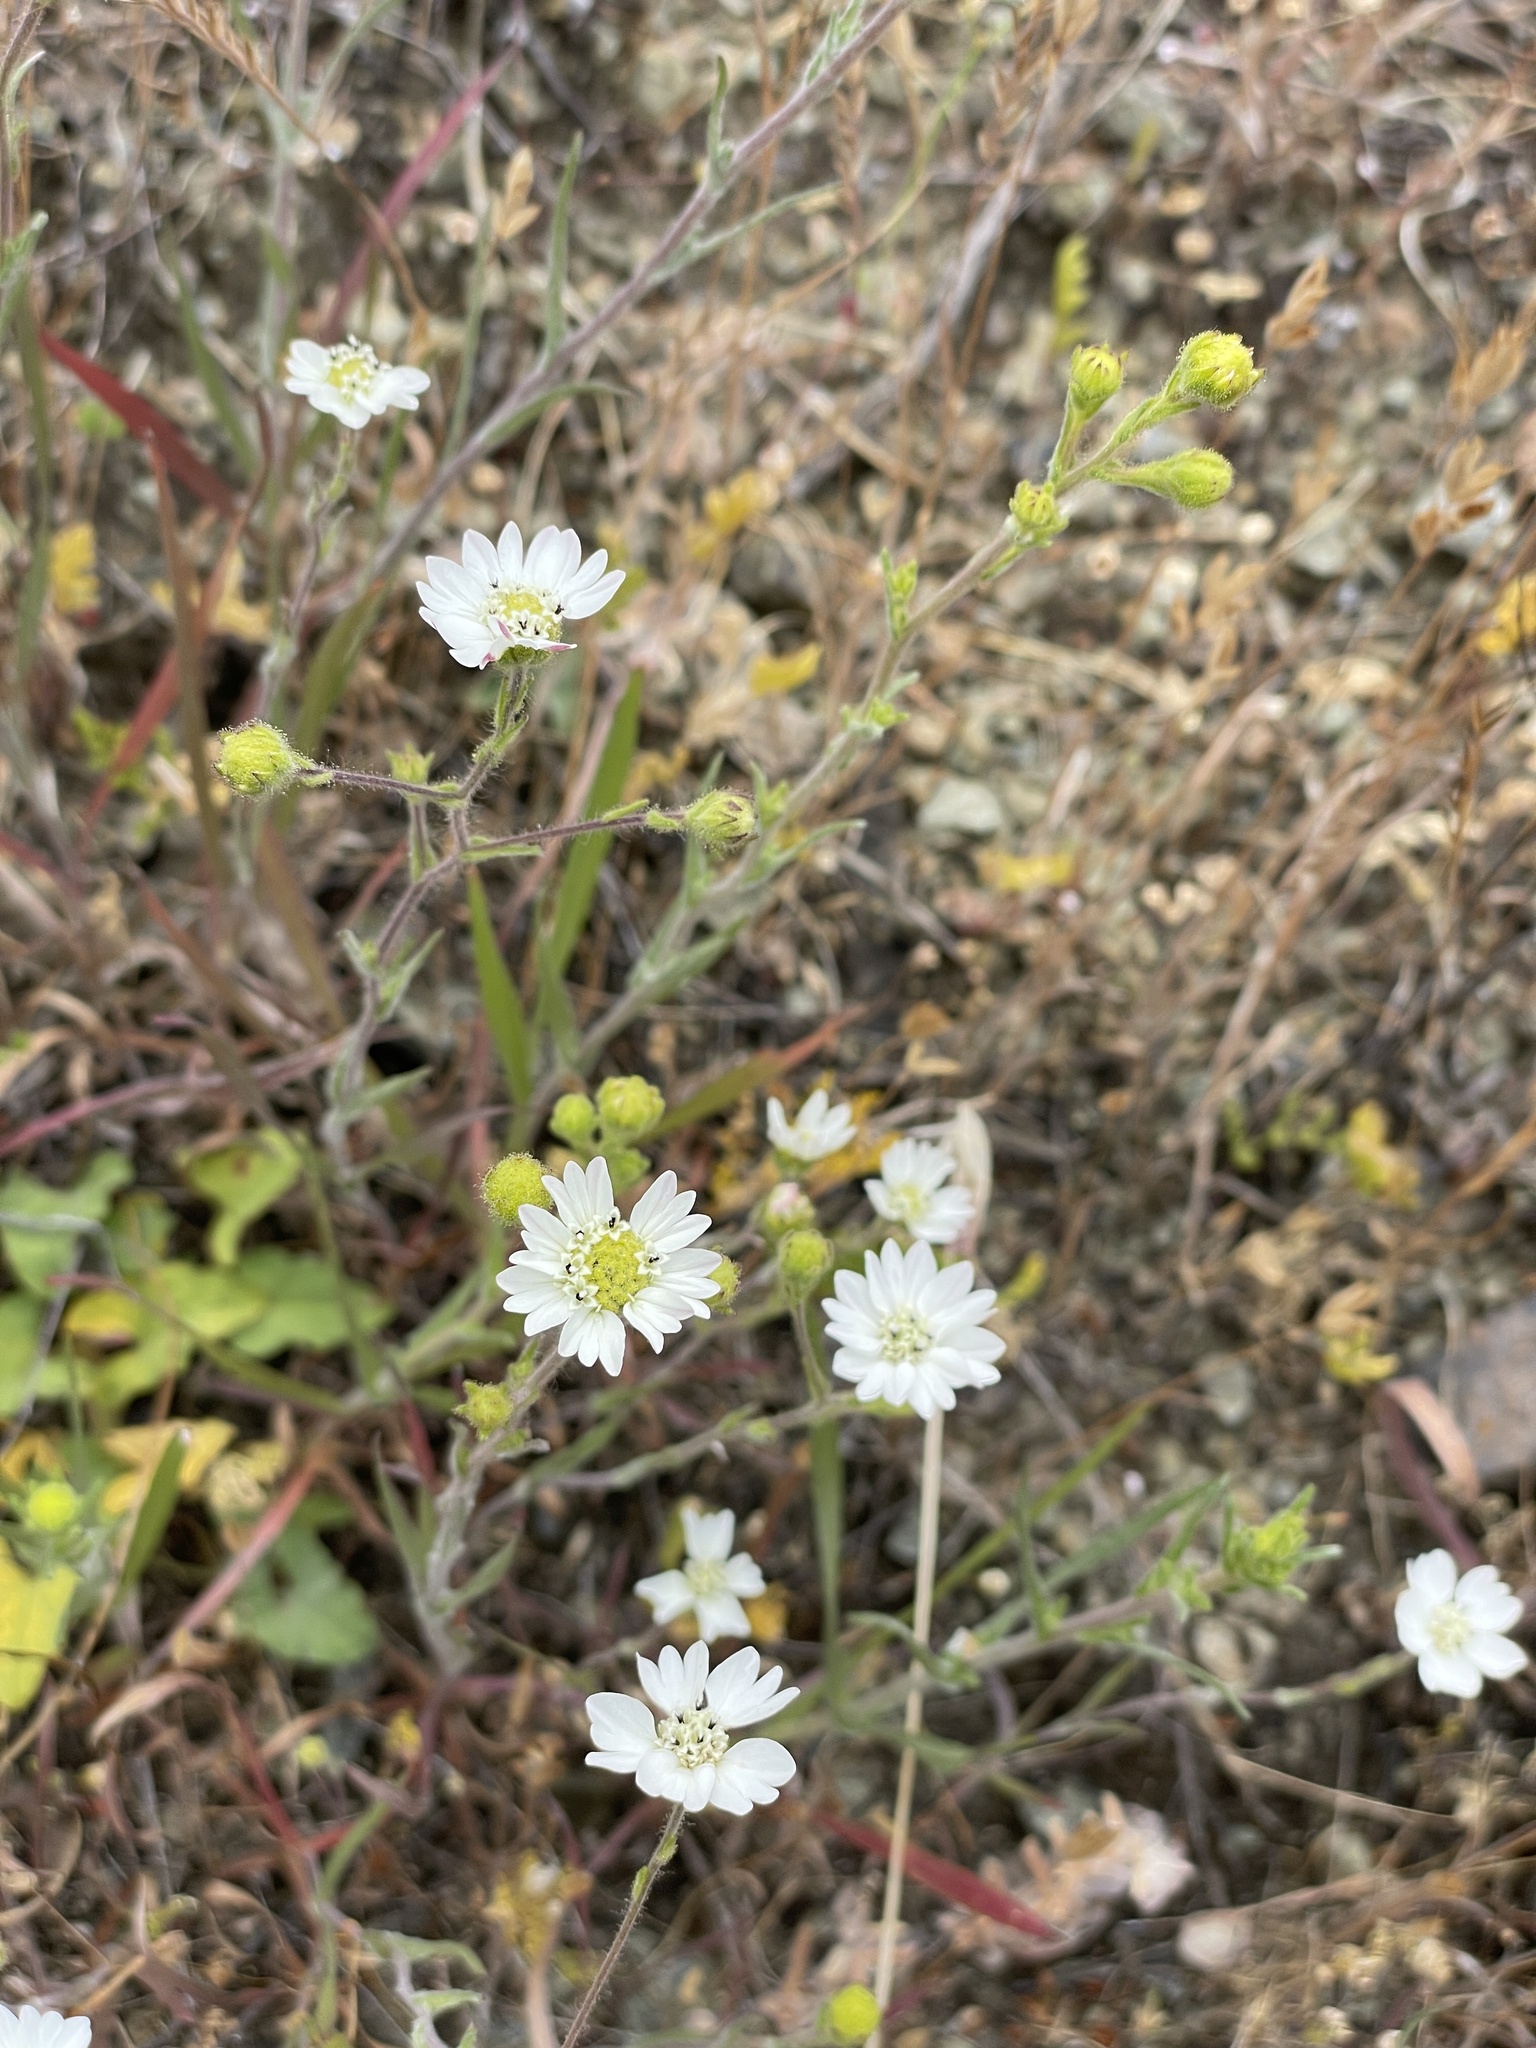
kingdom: Plantae
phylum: Tracheophyta
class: Magnoliopsida
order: Asterales
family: Asteraceae
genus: Hemizonia
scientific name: Hemizonia congesta
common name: Hayfield tarweed
